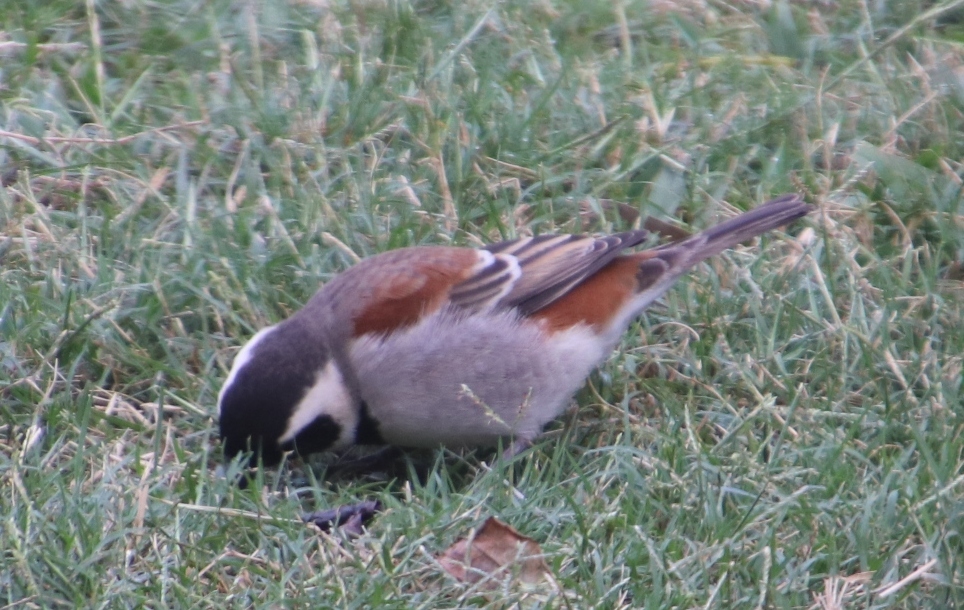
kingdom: Animalia
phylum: Chordata
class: Aves
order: Passeriformes
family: Passeridae
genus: Passer
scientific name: Passer melanurus
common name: Cape sparrow
